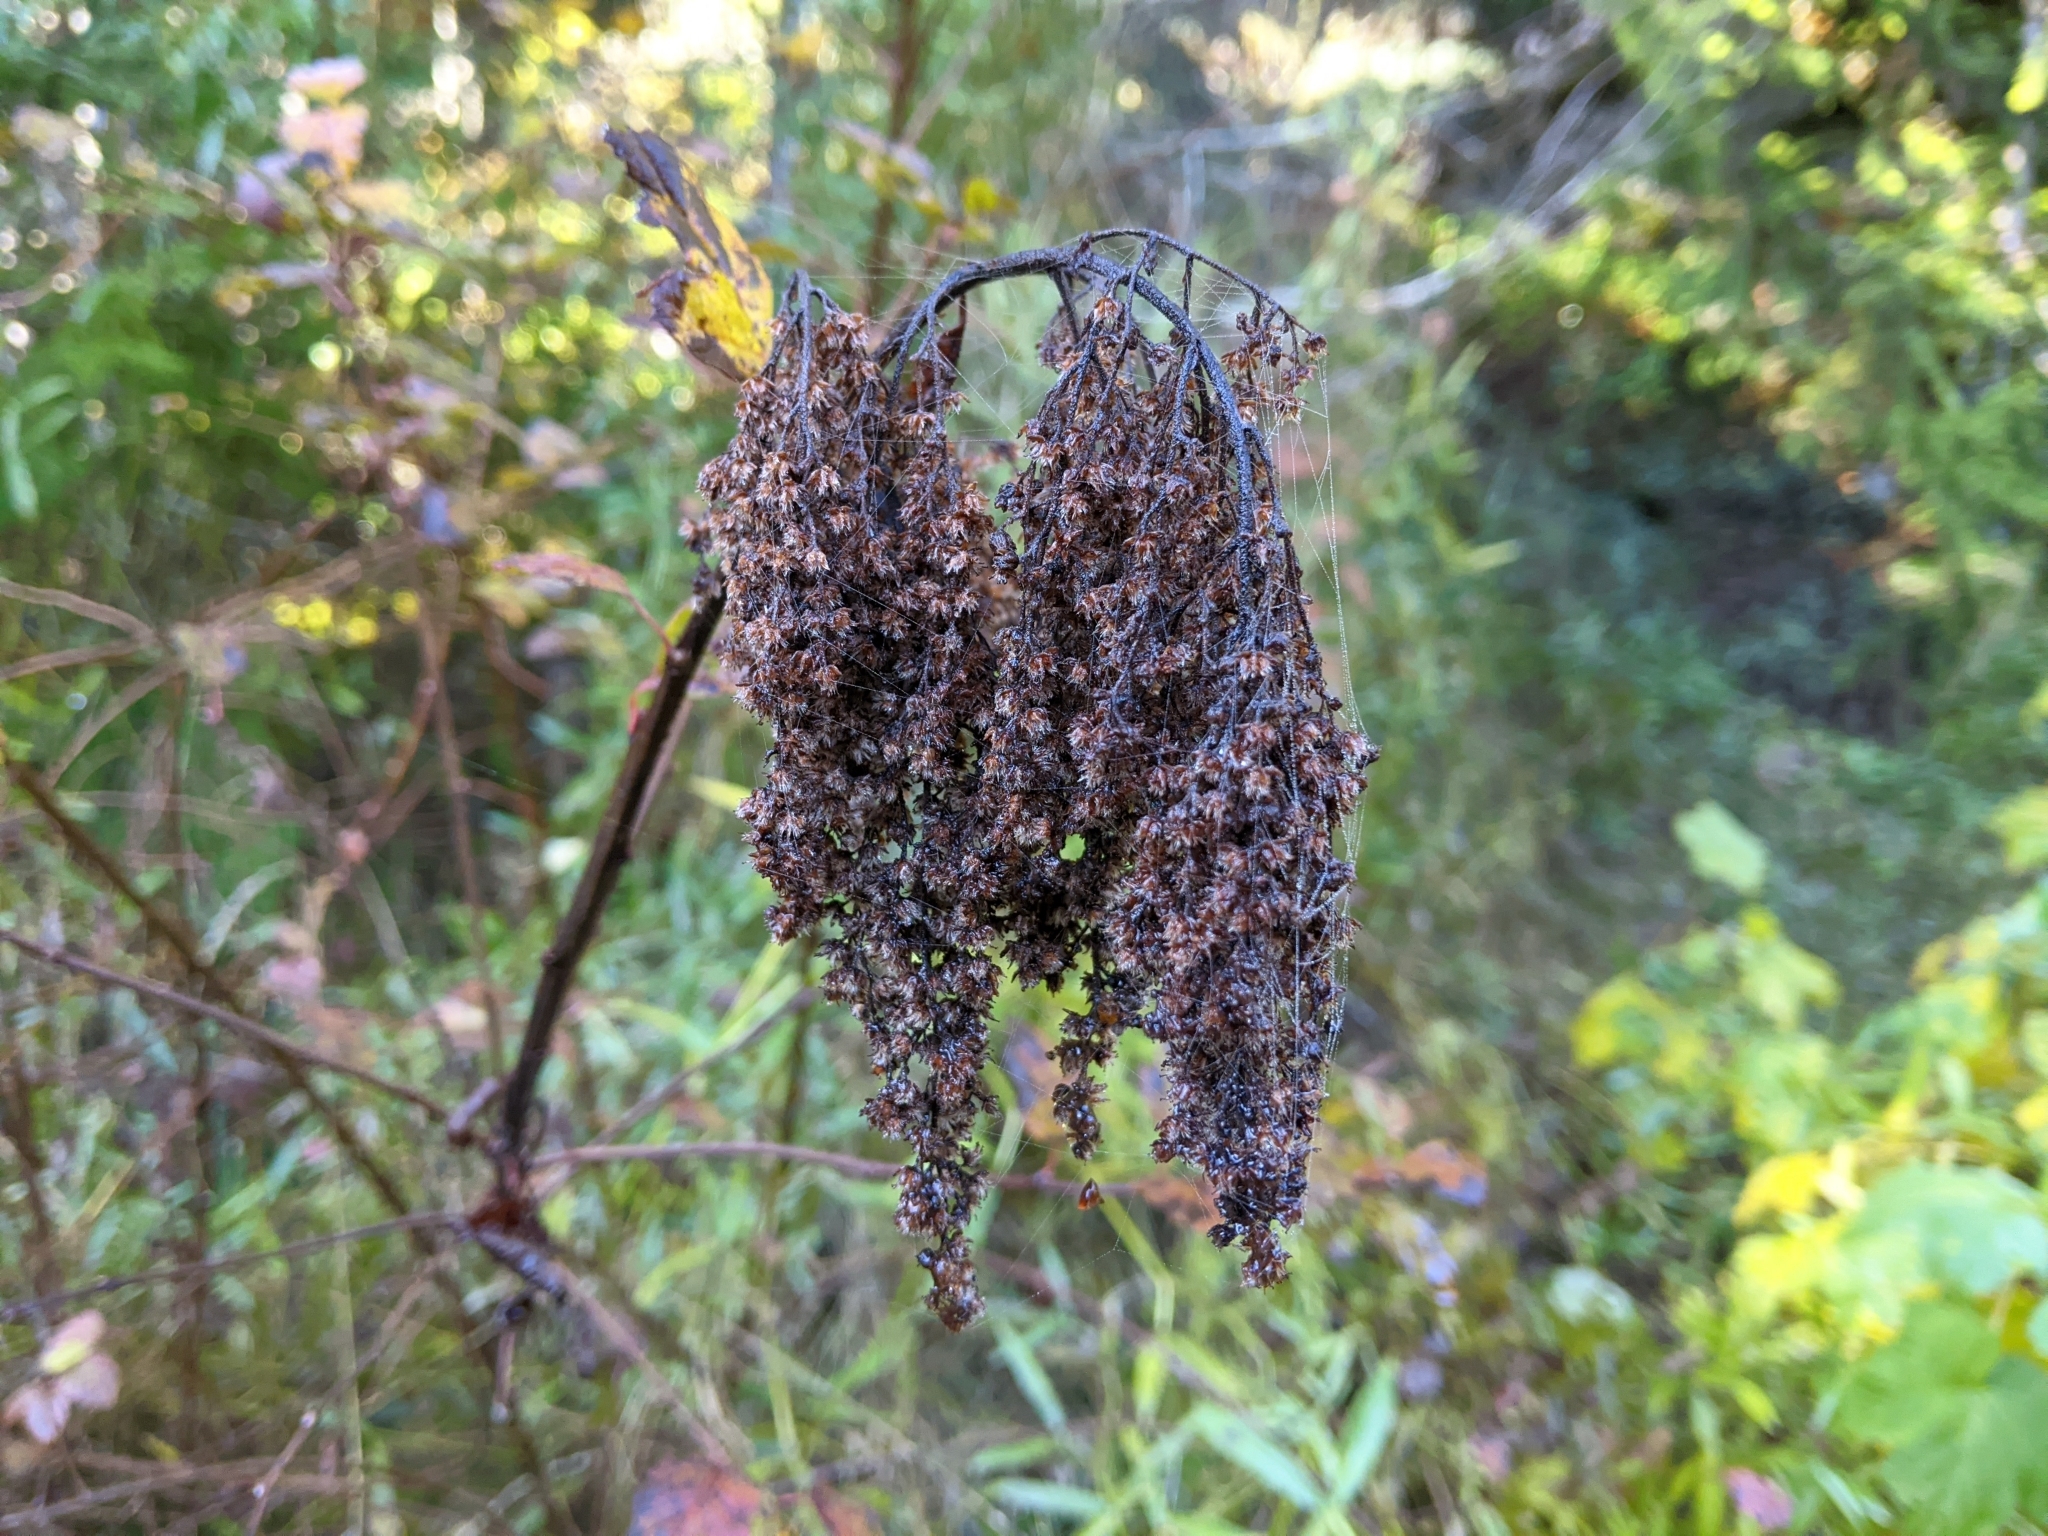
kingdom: Plantae
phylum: Tracheophyta
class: Magnoliopsida
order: Rosales
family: Rosaceae
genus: Holodiscus
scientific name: Holodiscus discolor
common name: Oceanspray
